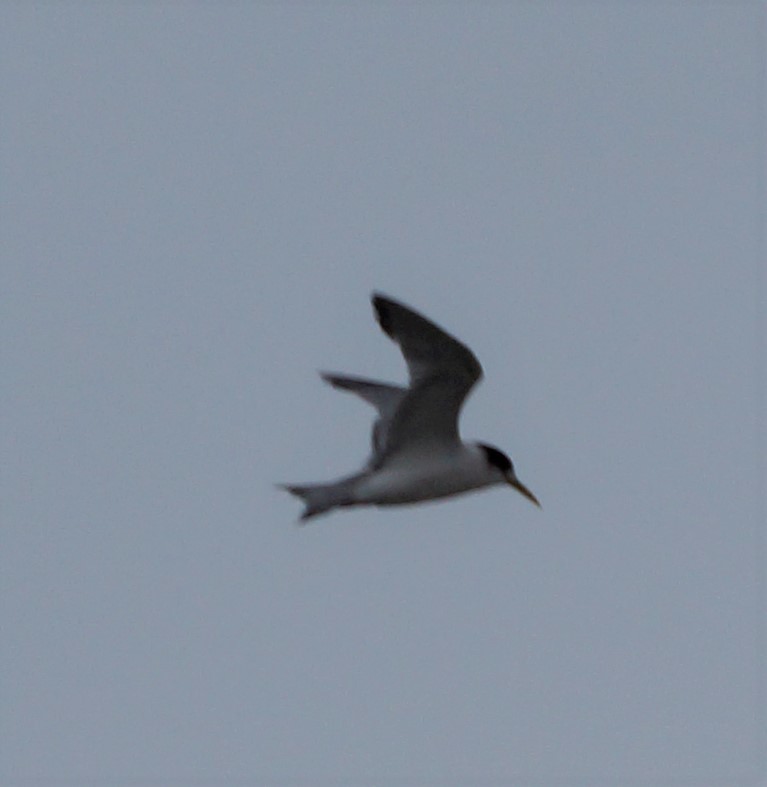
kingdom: Animalia
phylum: Chordata
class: Aves
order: Charadriiformes
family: Laridae
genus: Thalasseus
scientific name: Thalasseus bergii
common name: Greater crested tern
